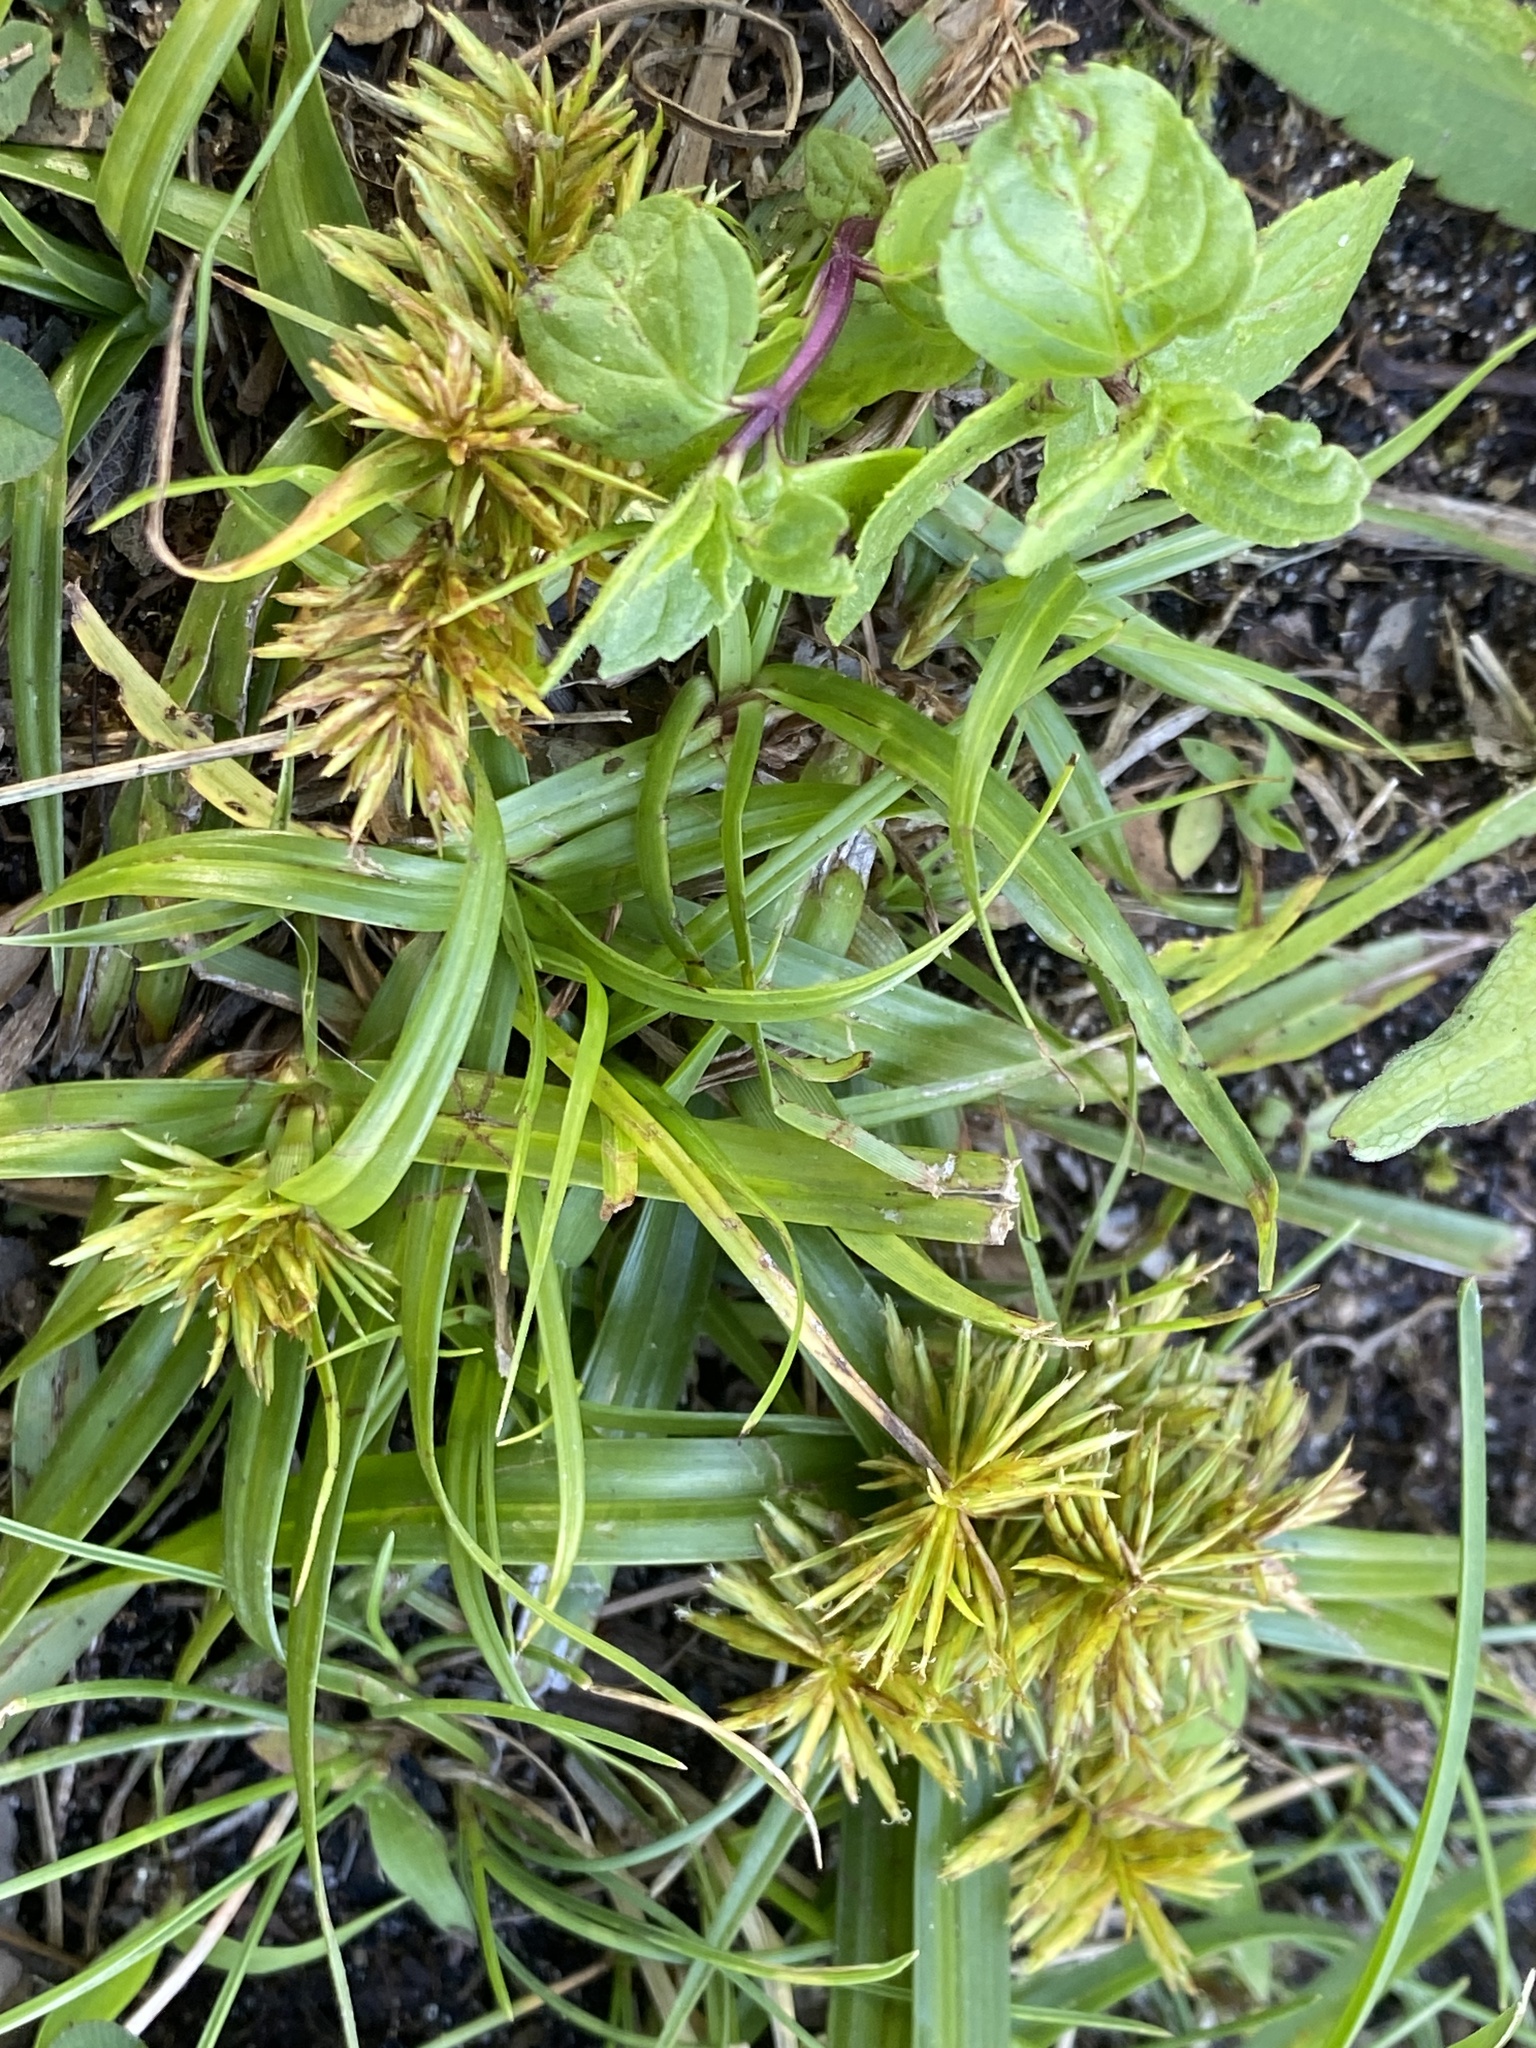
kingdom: Plantae
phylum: Tracheophyta
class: Liliopsida
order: Poales
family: Cyperaceae
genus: Cyperus
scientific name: Cyperus strigosus
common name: False nutsedge
